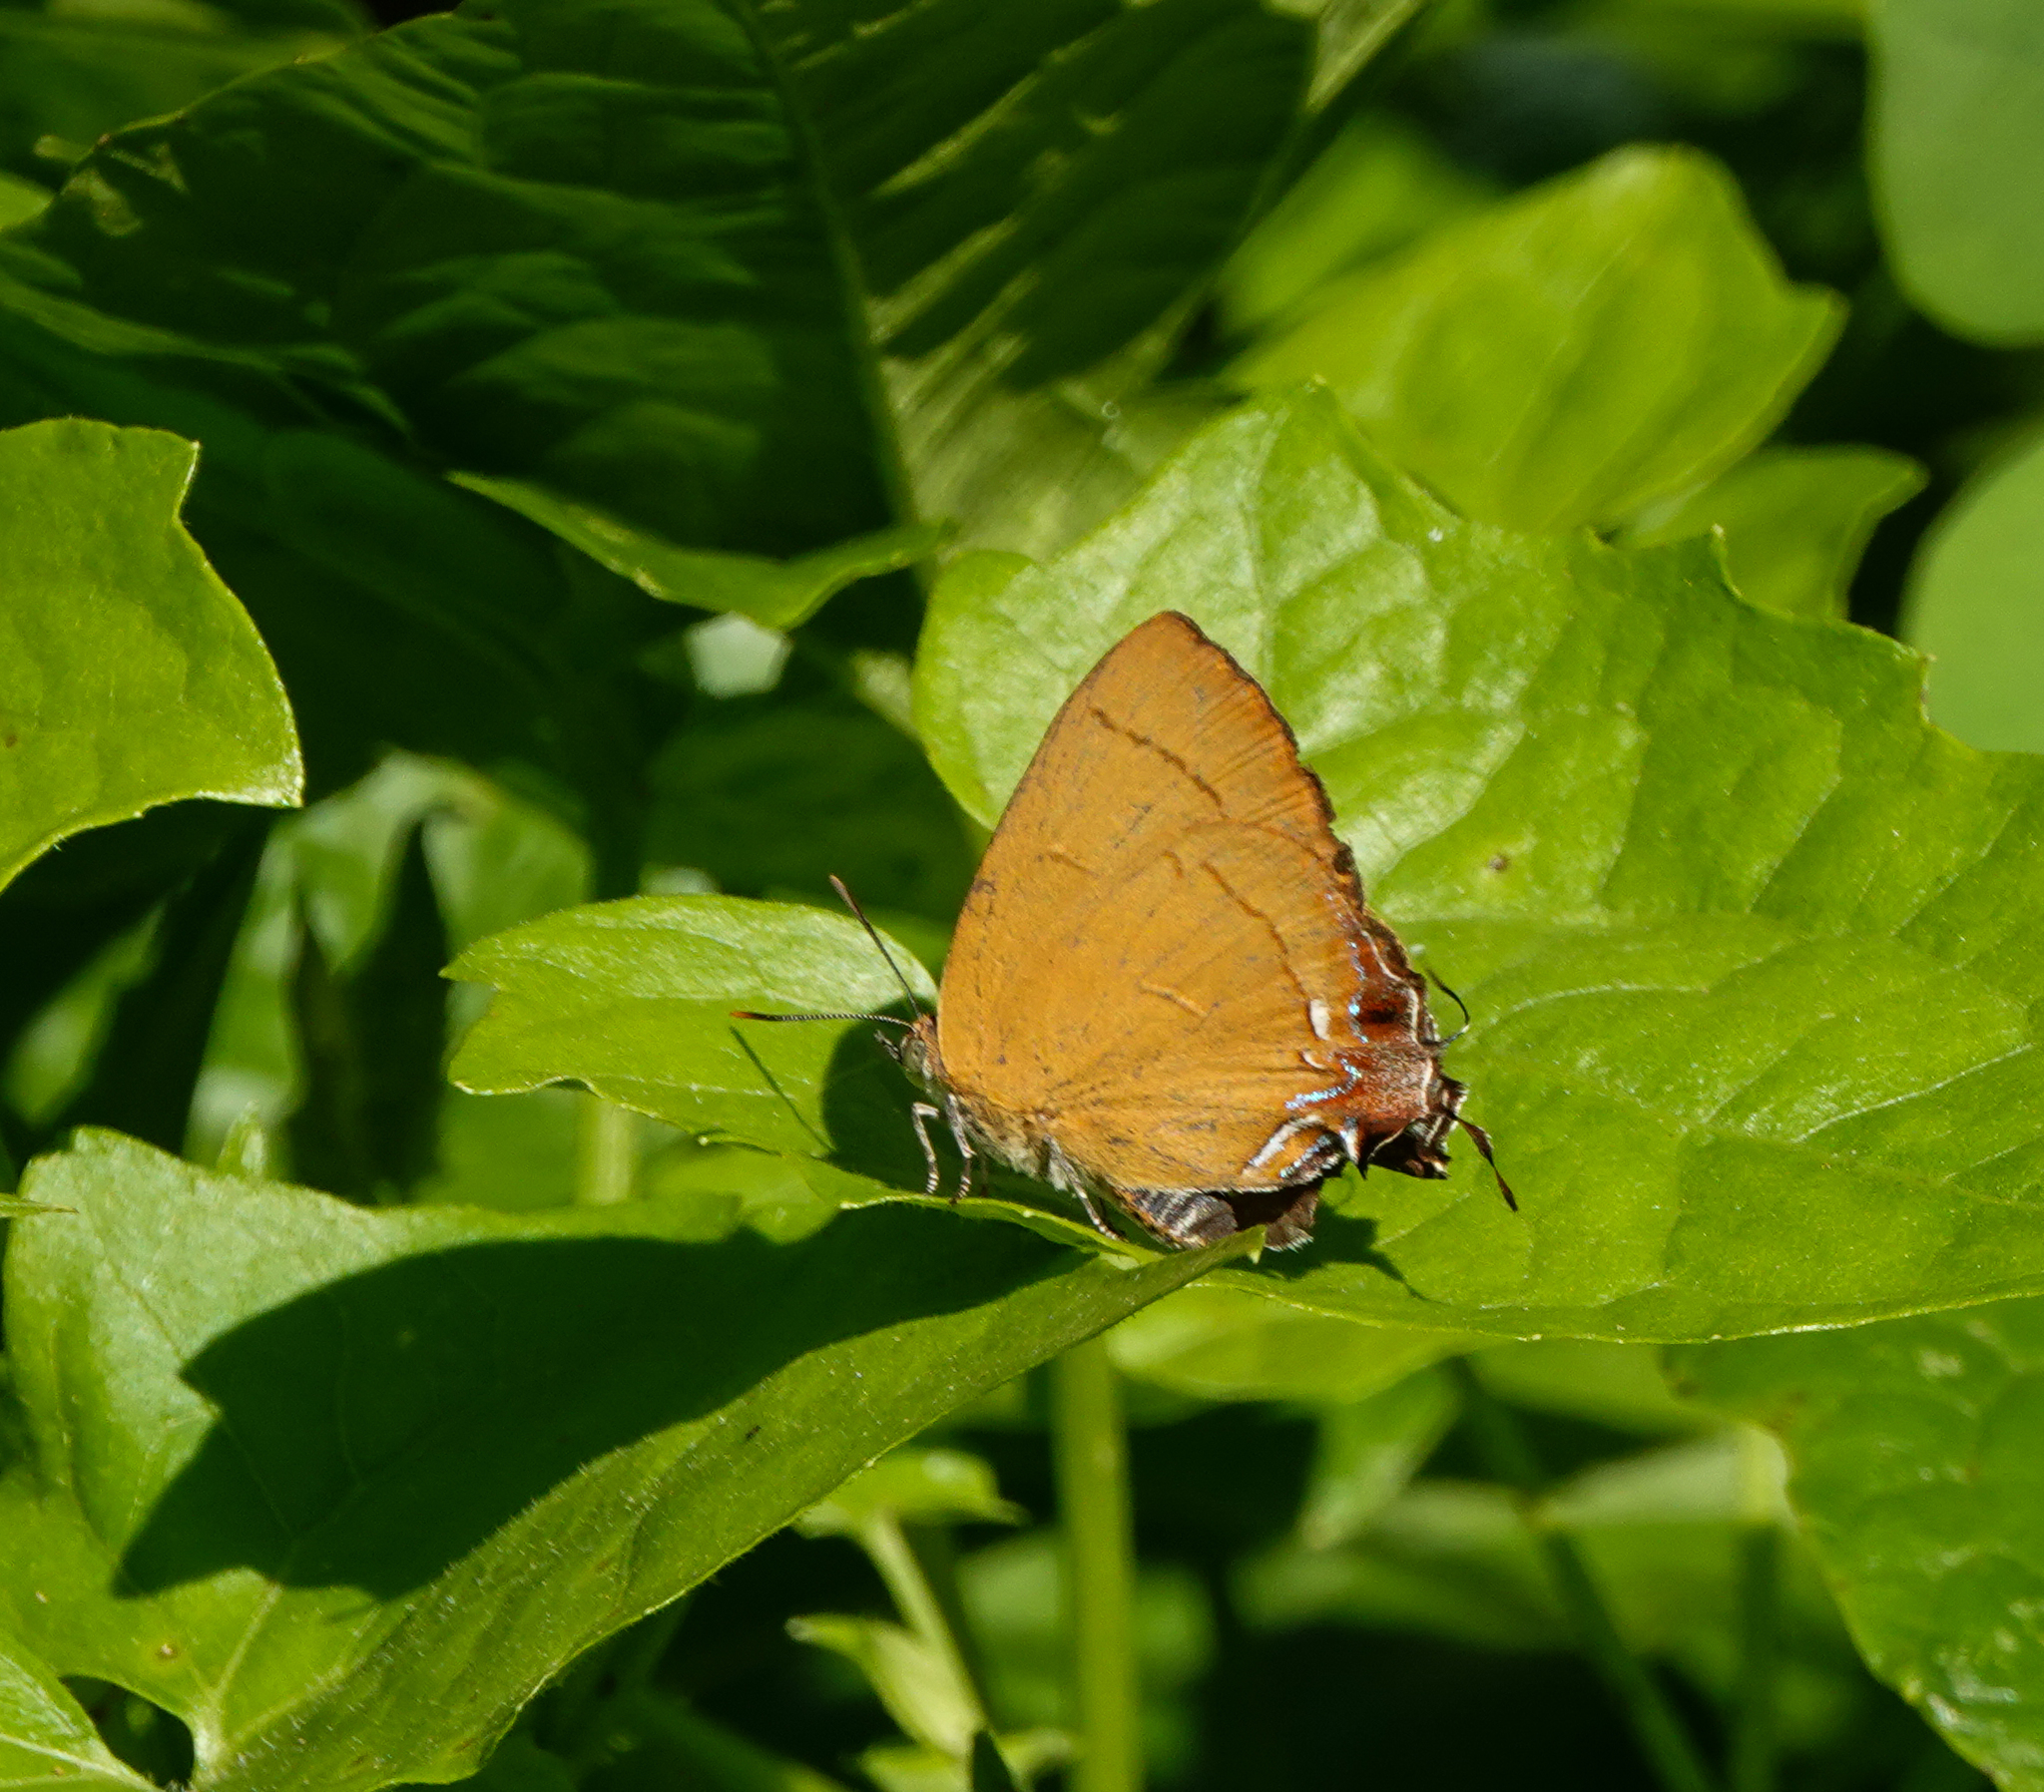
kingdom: Animalia
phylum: Arthropoda
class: Insecta
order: Lepidoptera
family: Lycaenidae
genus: Remelana
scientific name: Remelana jangala
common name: Chocolate royal
